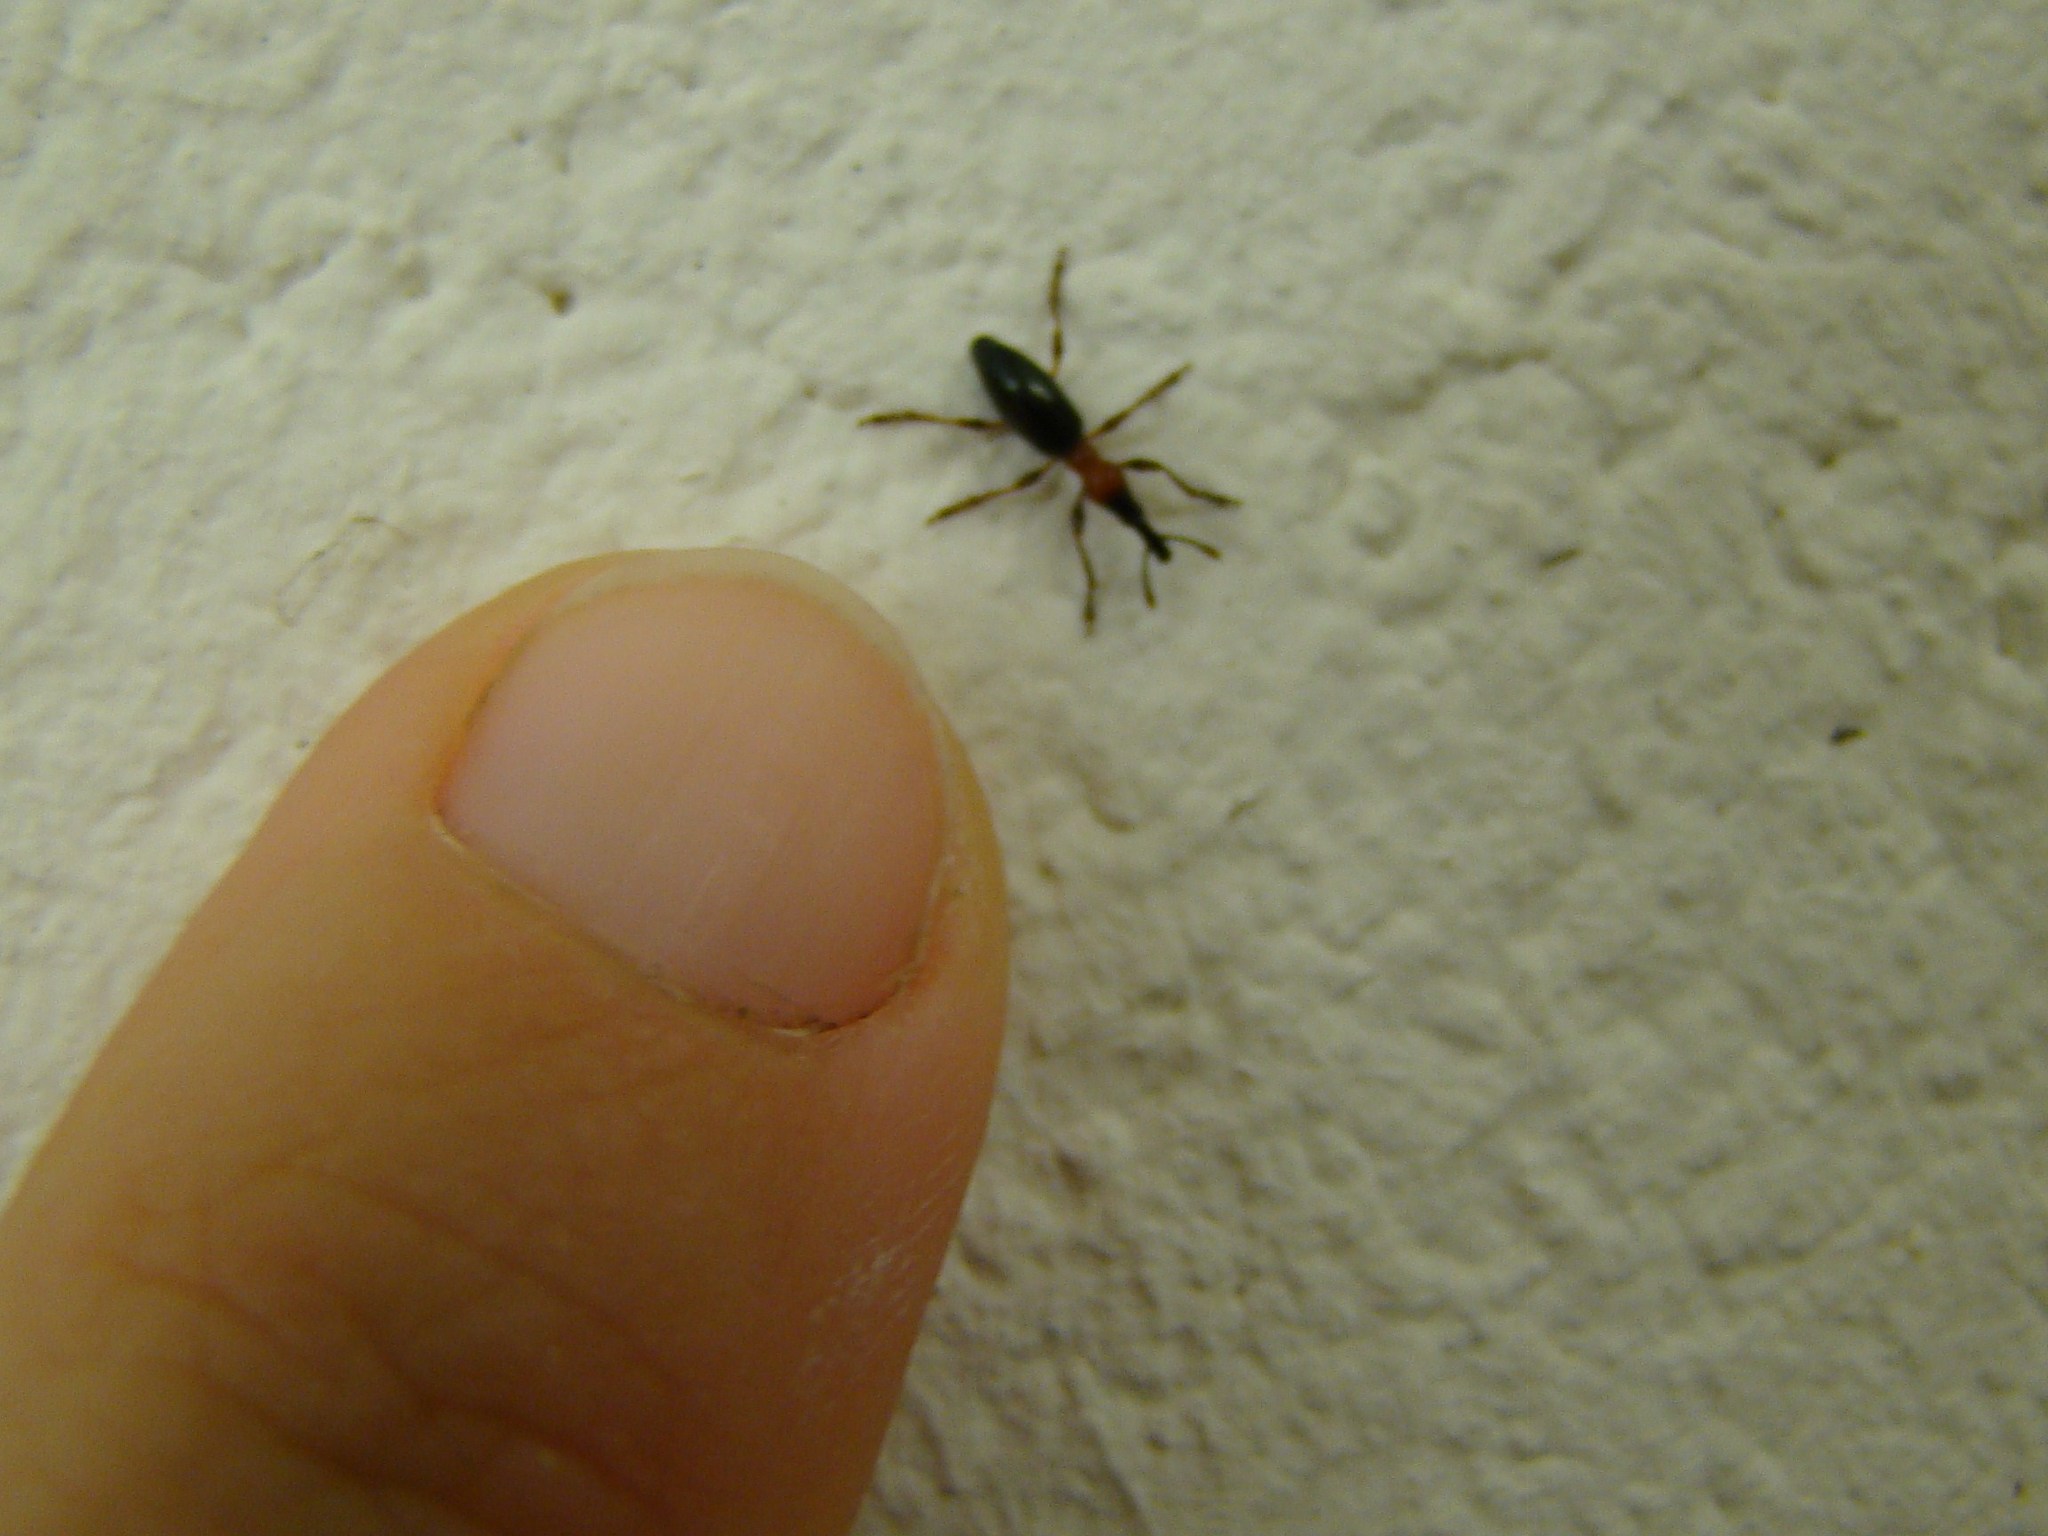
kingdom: Animalia
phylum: Arthropoda
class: Insecta
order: Coleoptera
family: Brentidae
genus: Cylas
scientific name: Cylas formicarius
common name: Sweetpotato weevil
